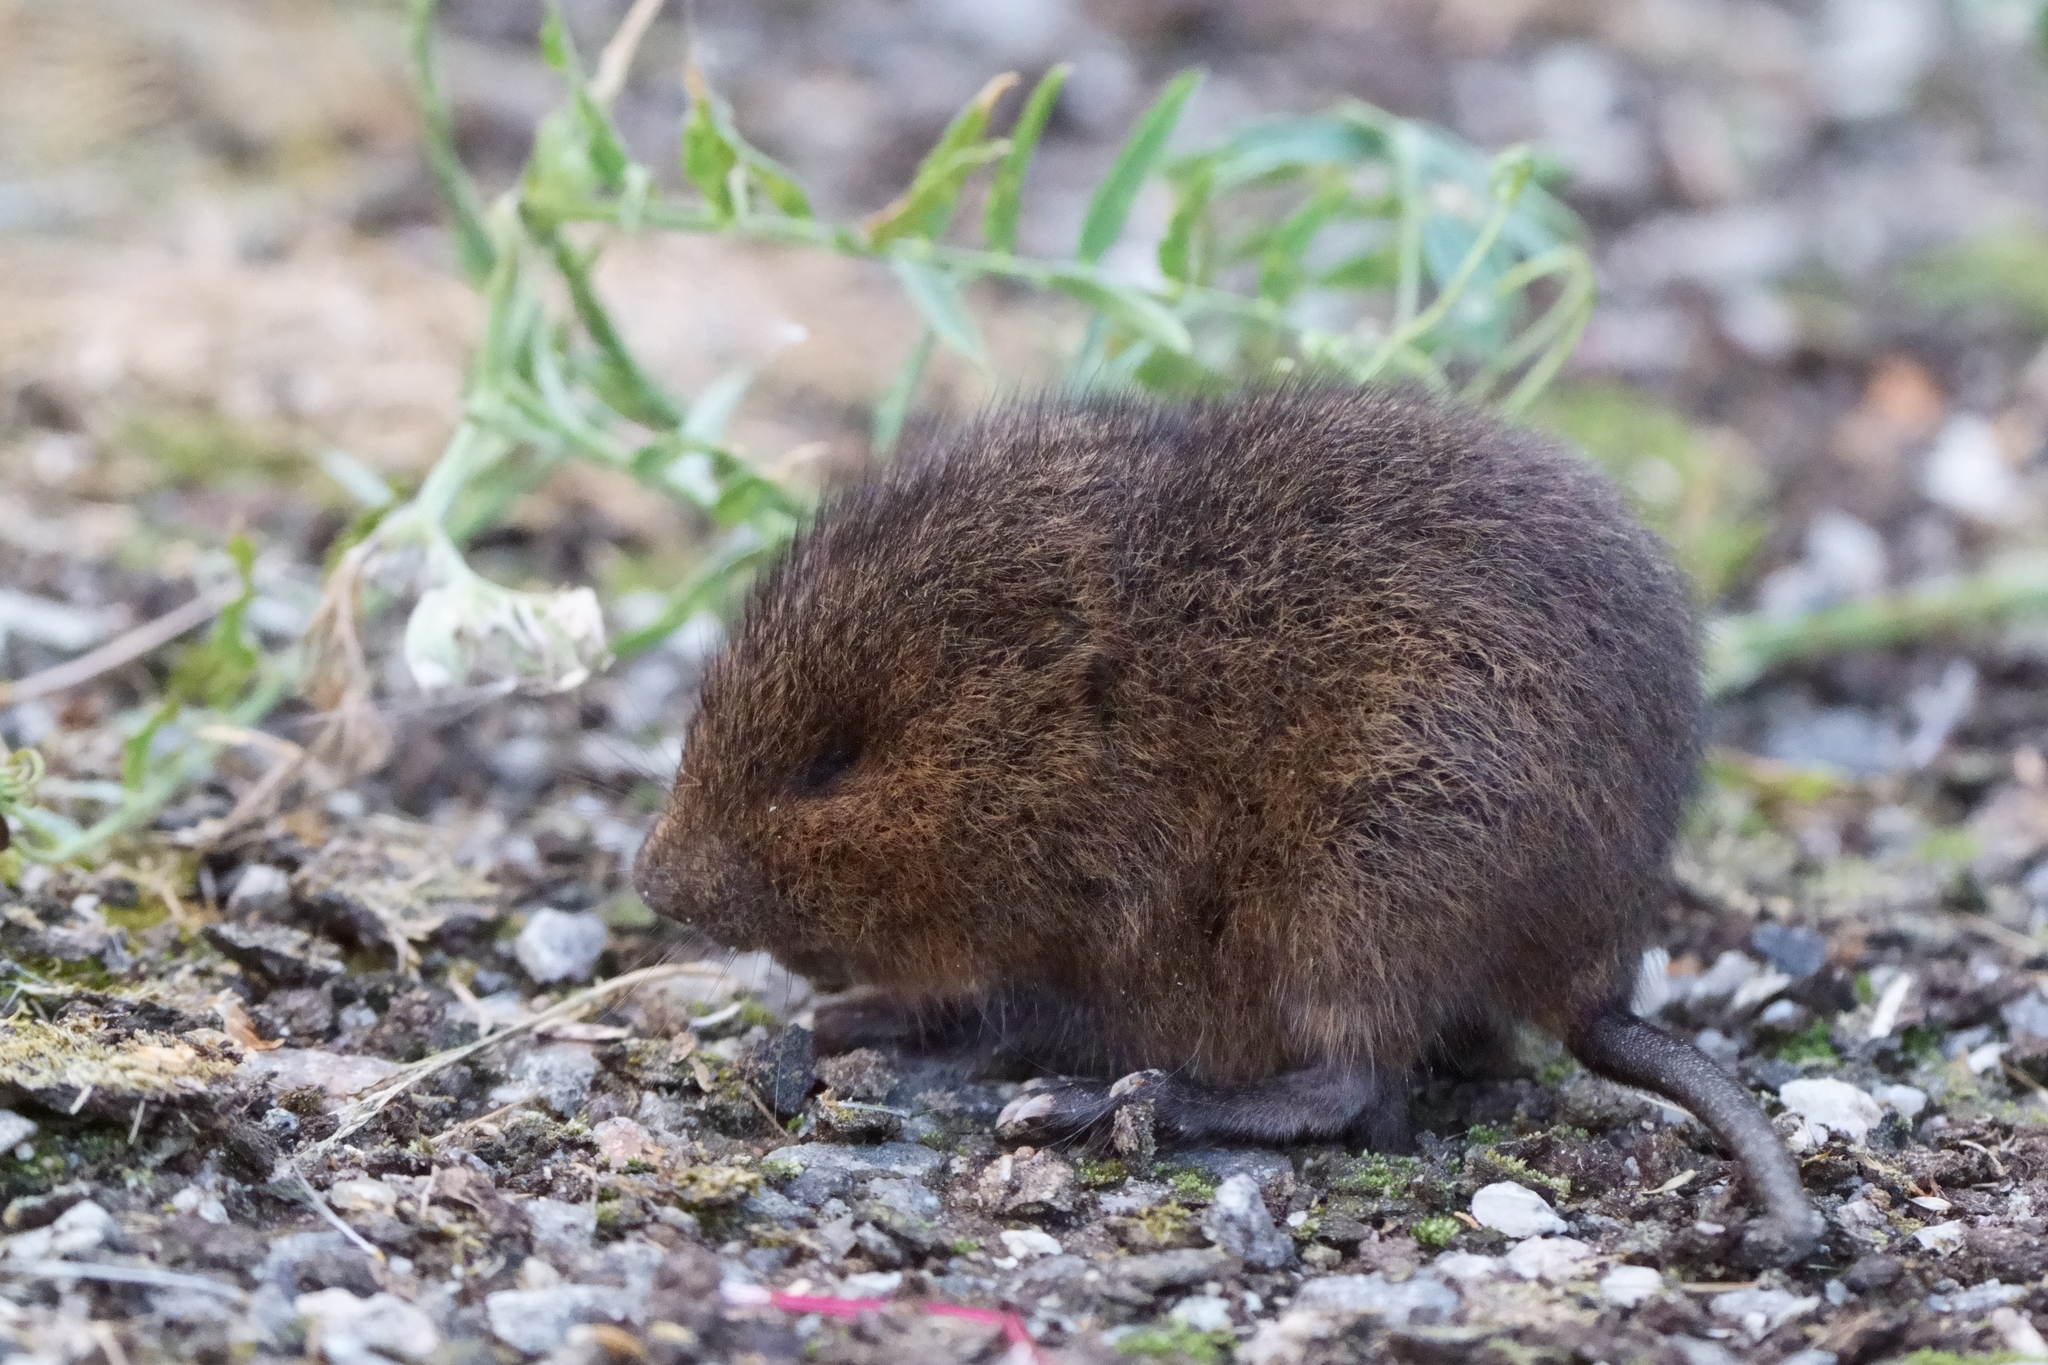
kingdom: Animalia
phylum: Chordata
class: Mammalia
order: Rodentia
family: Cricetidae
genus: Arvicola
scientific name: Arvicola amphibius
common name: European water vole
